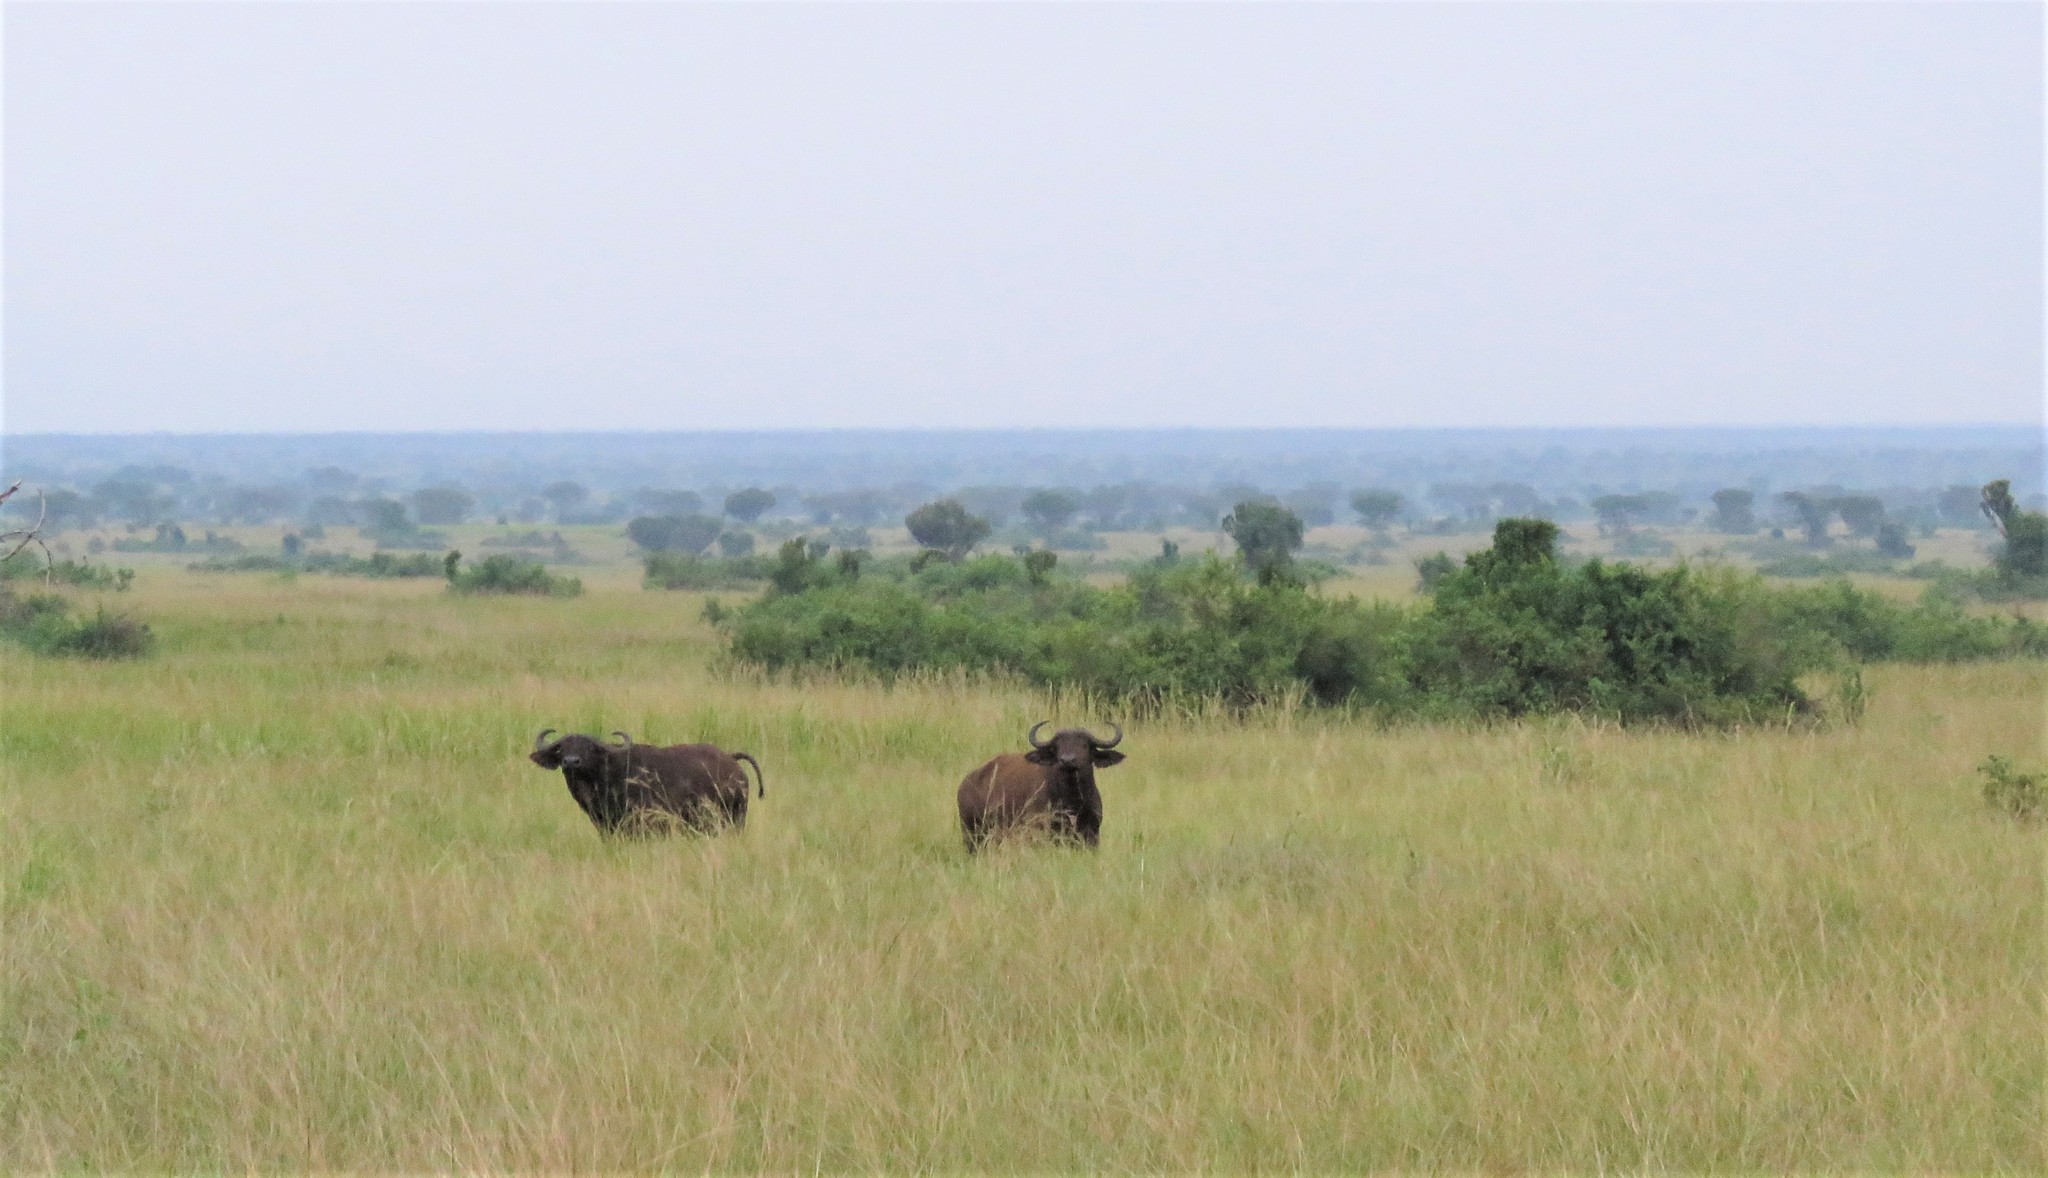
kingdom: Animalia
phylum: Chordata
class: Mammalia
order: Artiodactyla
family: Bovidae
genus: Syncerus
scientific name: Syncerus caffer
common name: African buffalo
